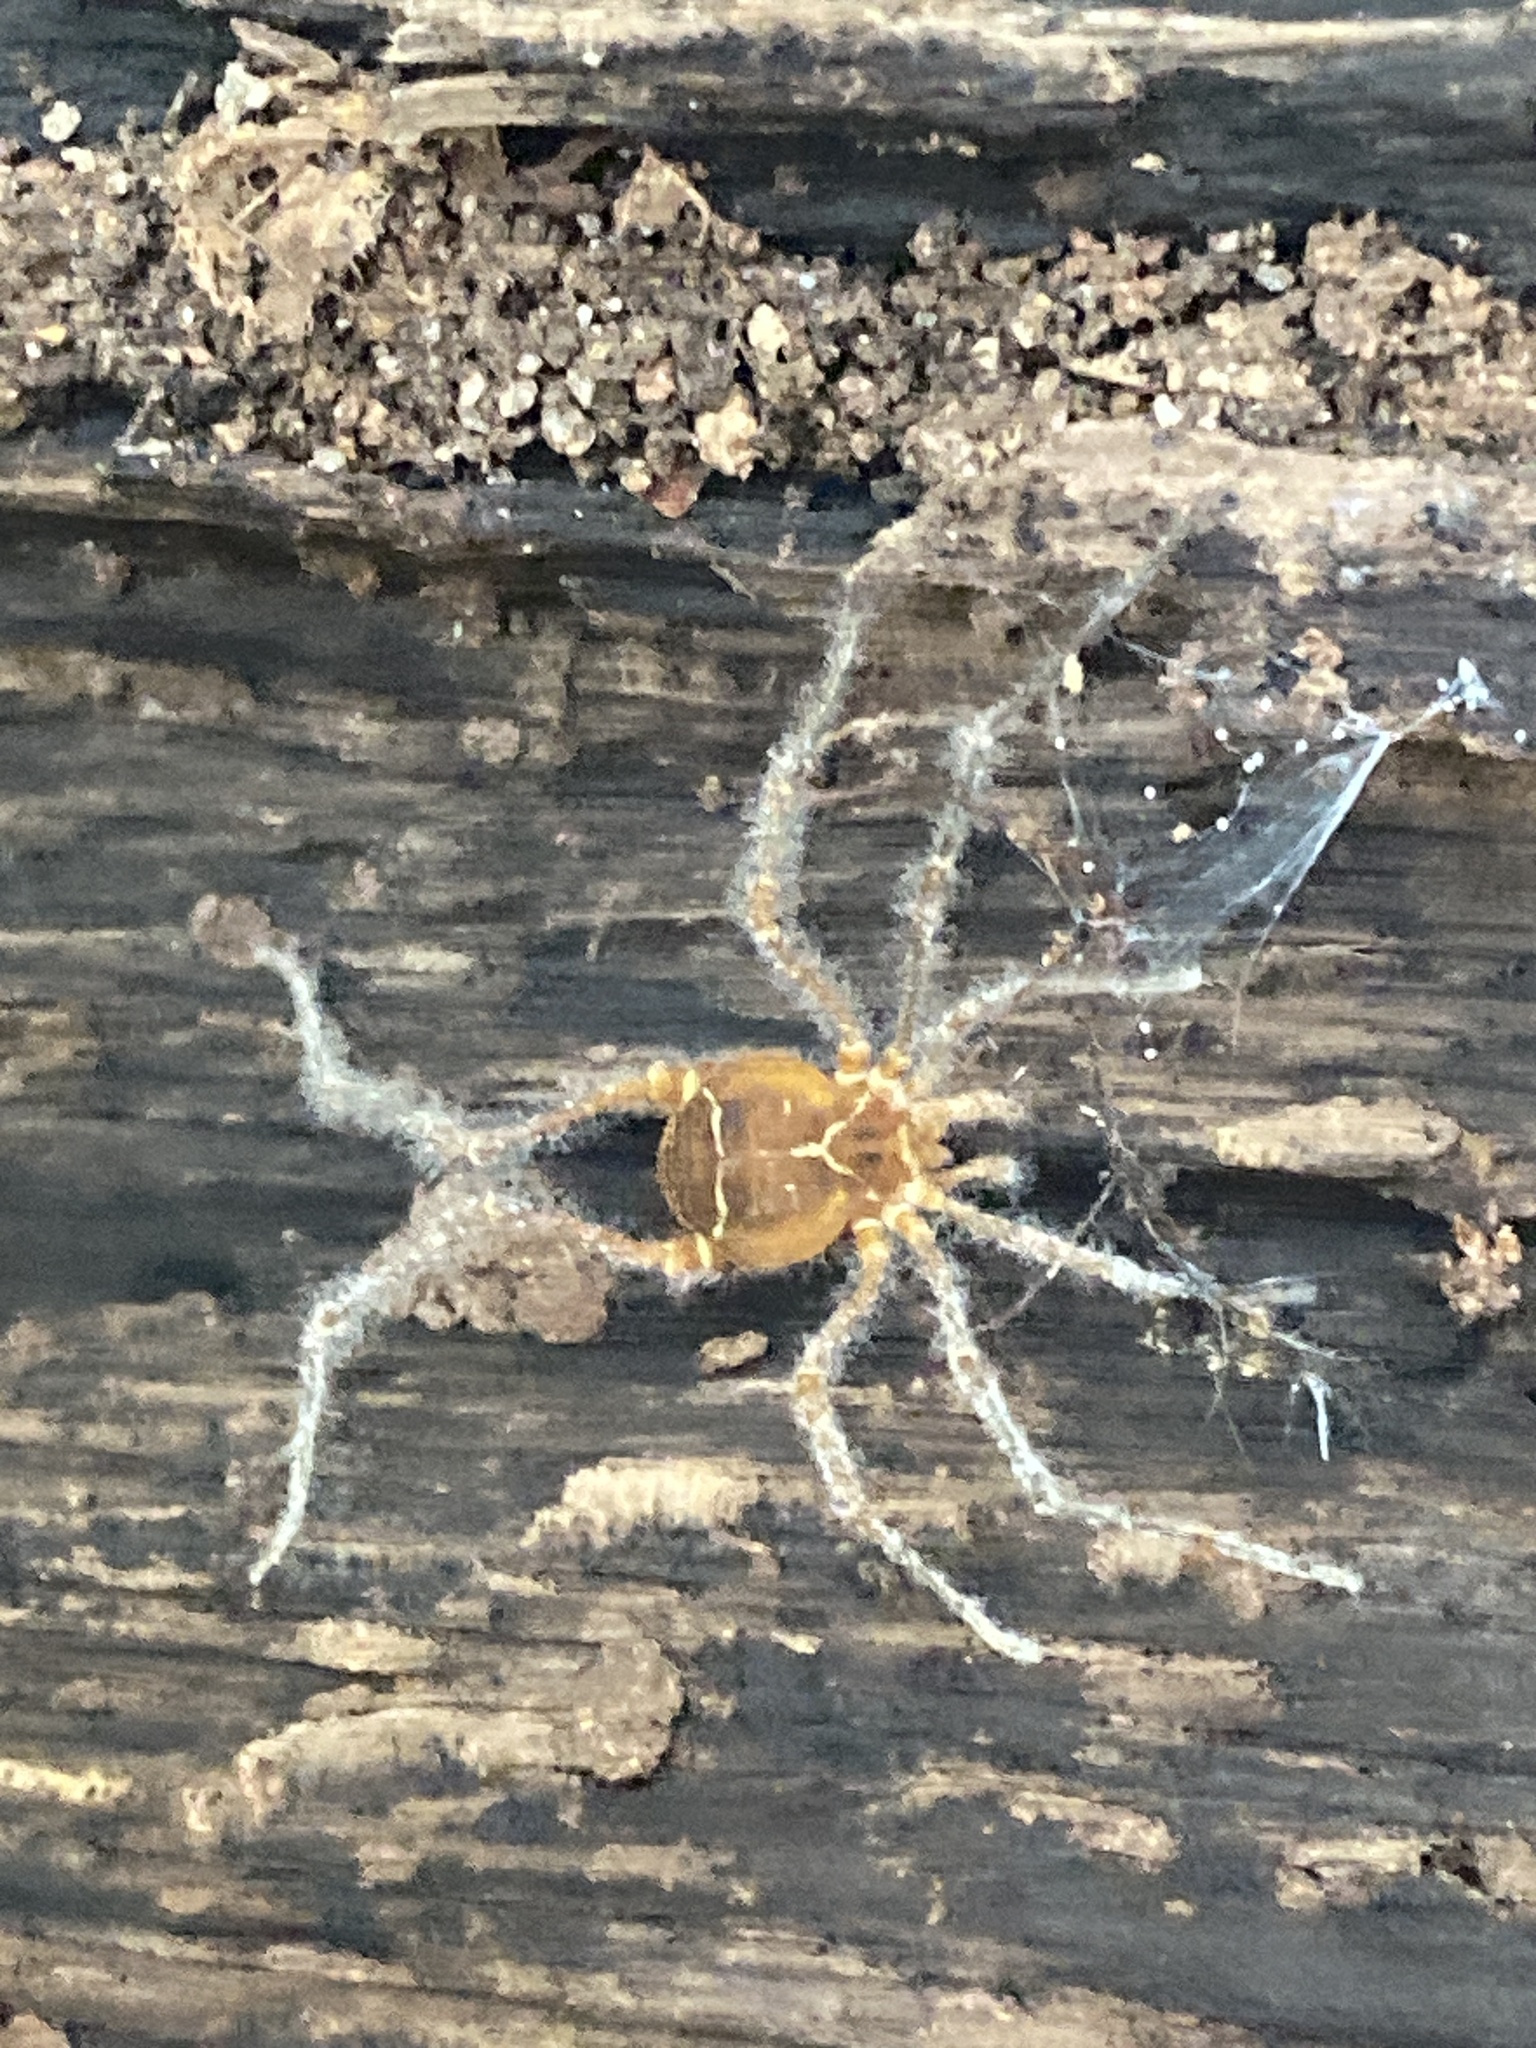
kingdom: Animalia
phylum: Arthropoda
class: Arachnida
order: Opiliones
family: Cosmetidae
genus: Libitioides
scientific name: Libitioides sayi
